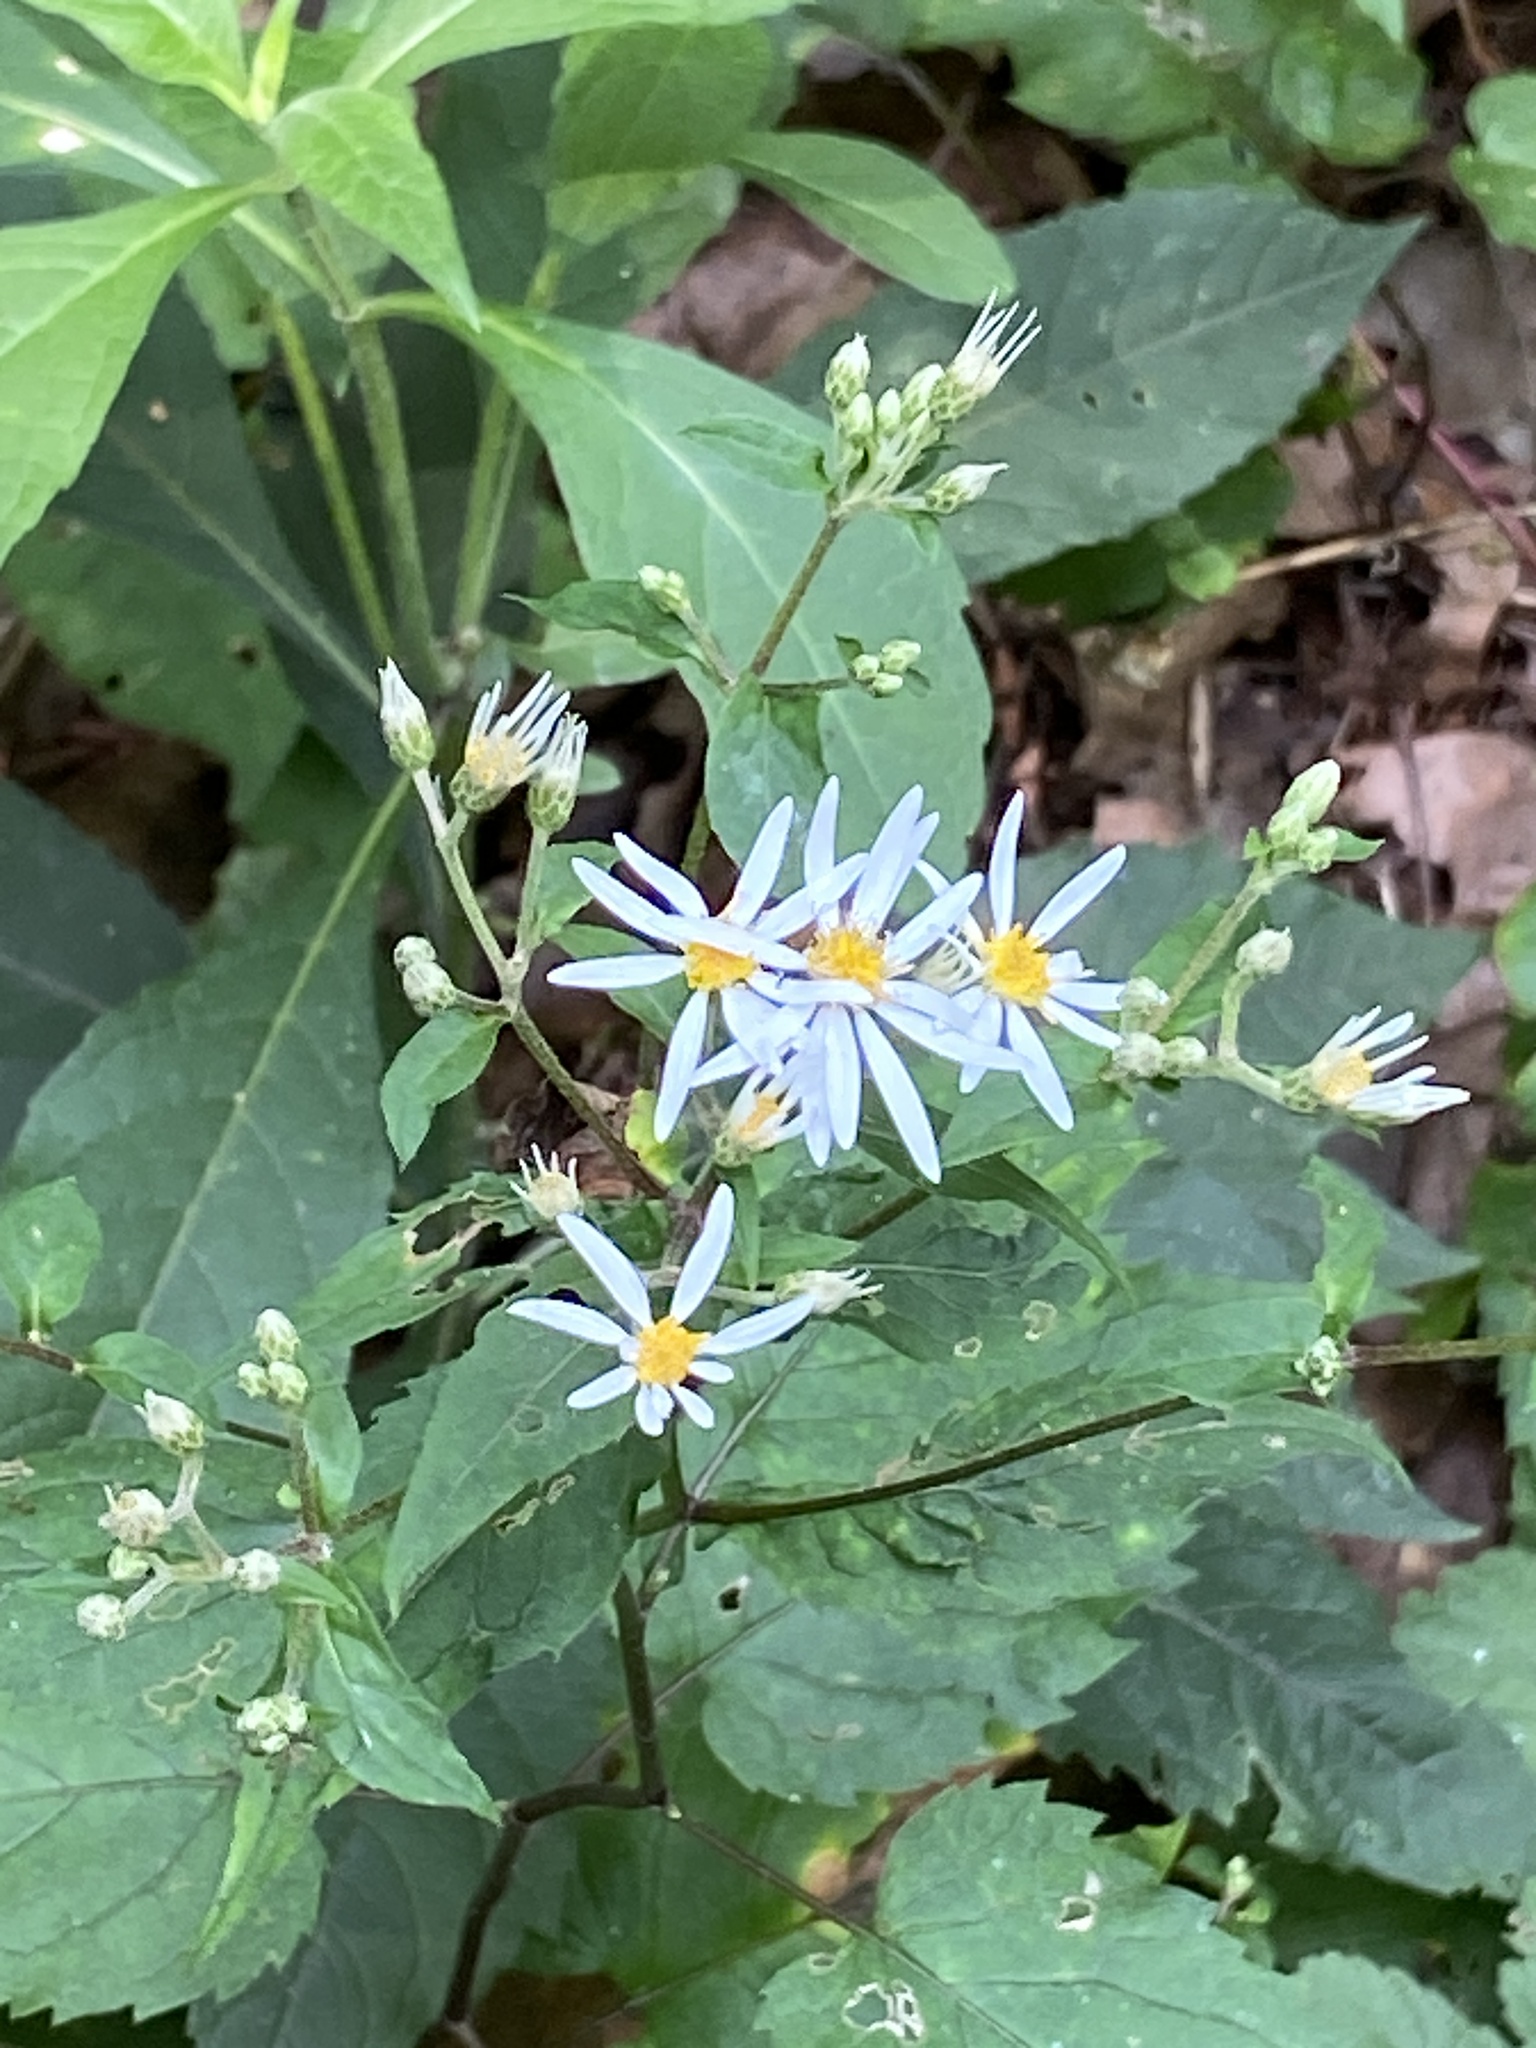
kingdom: Plantae
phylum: Tracheophyta
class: Magnoliopsida
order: Asterales
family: Asteraceae
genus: Eurybia
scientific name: Eurybia divaricata
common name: White wood aster
